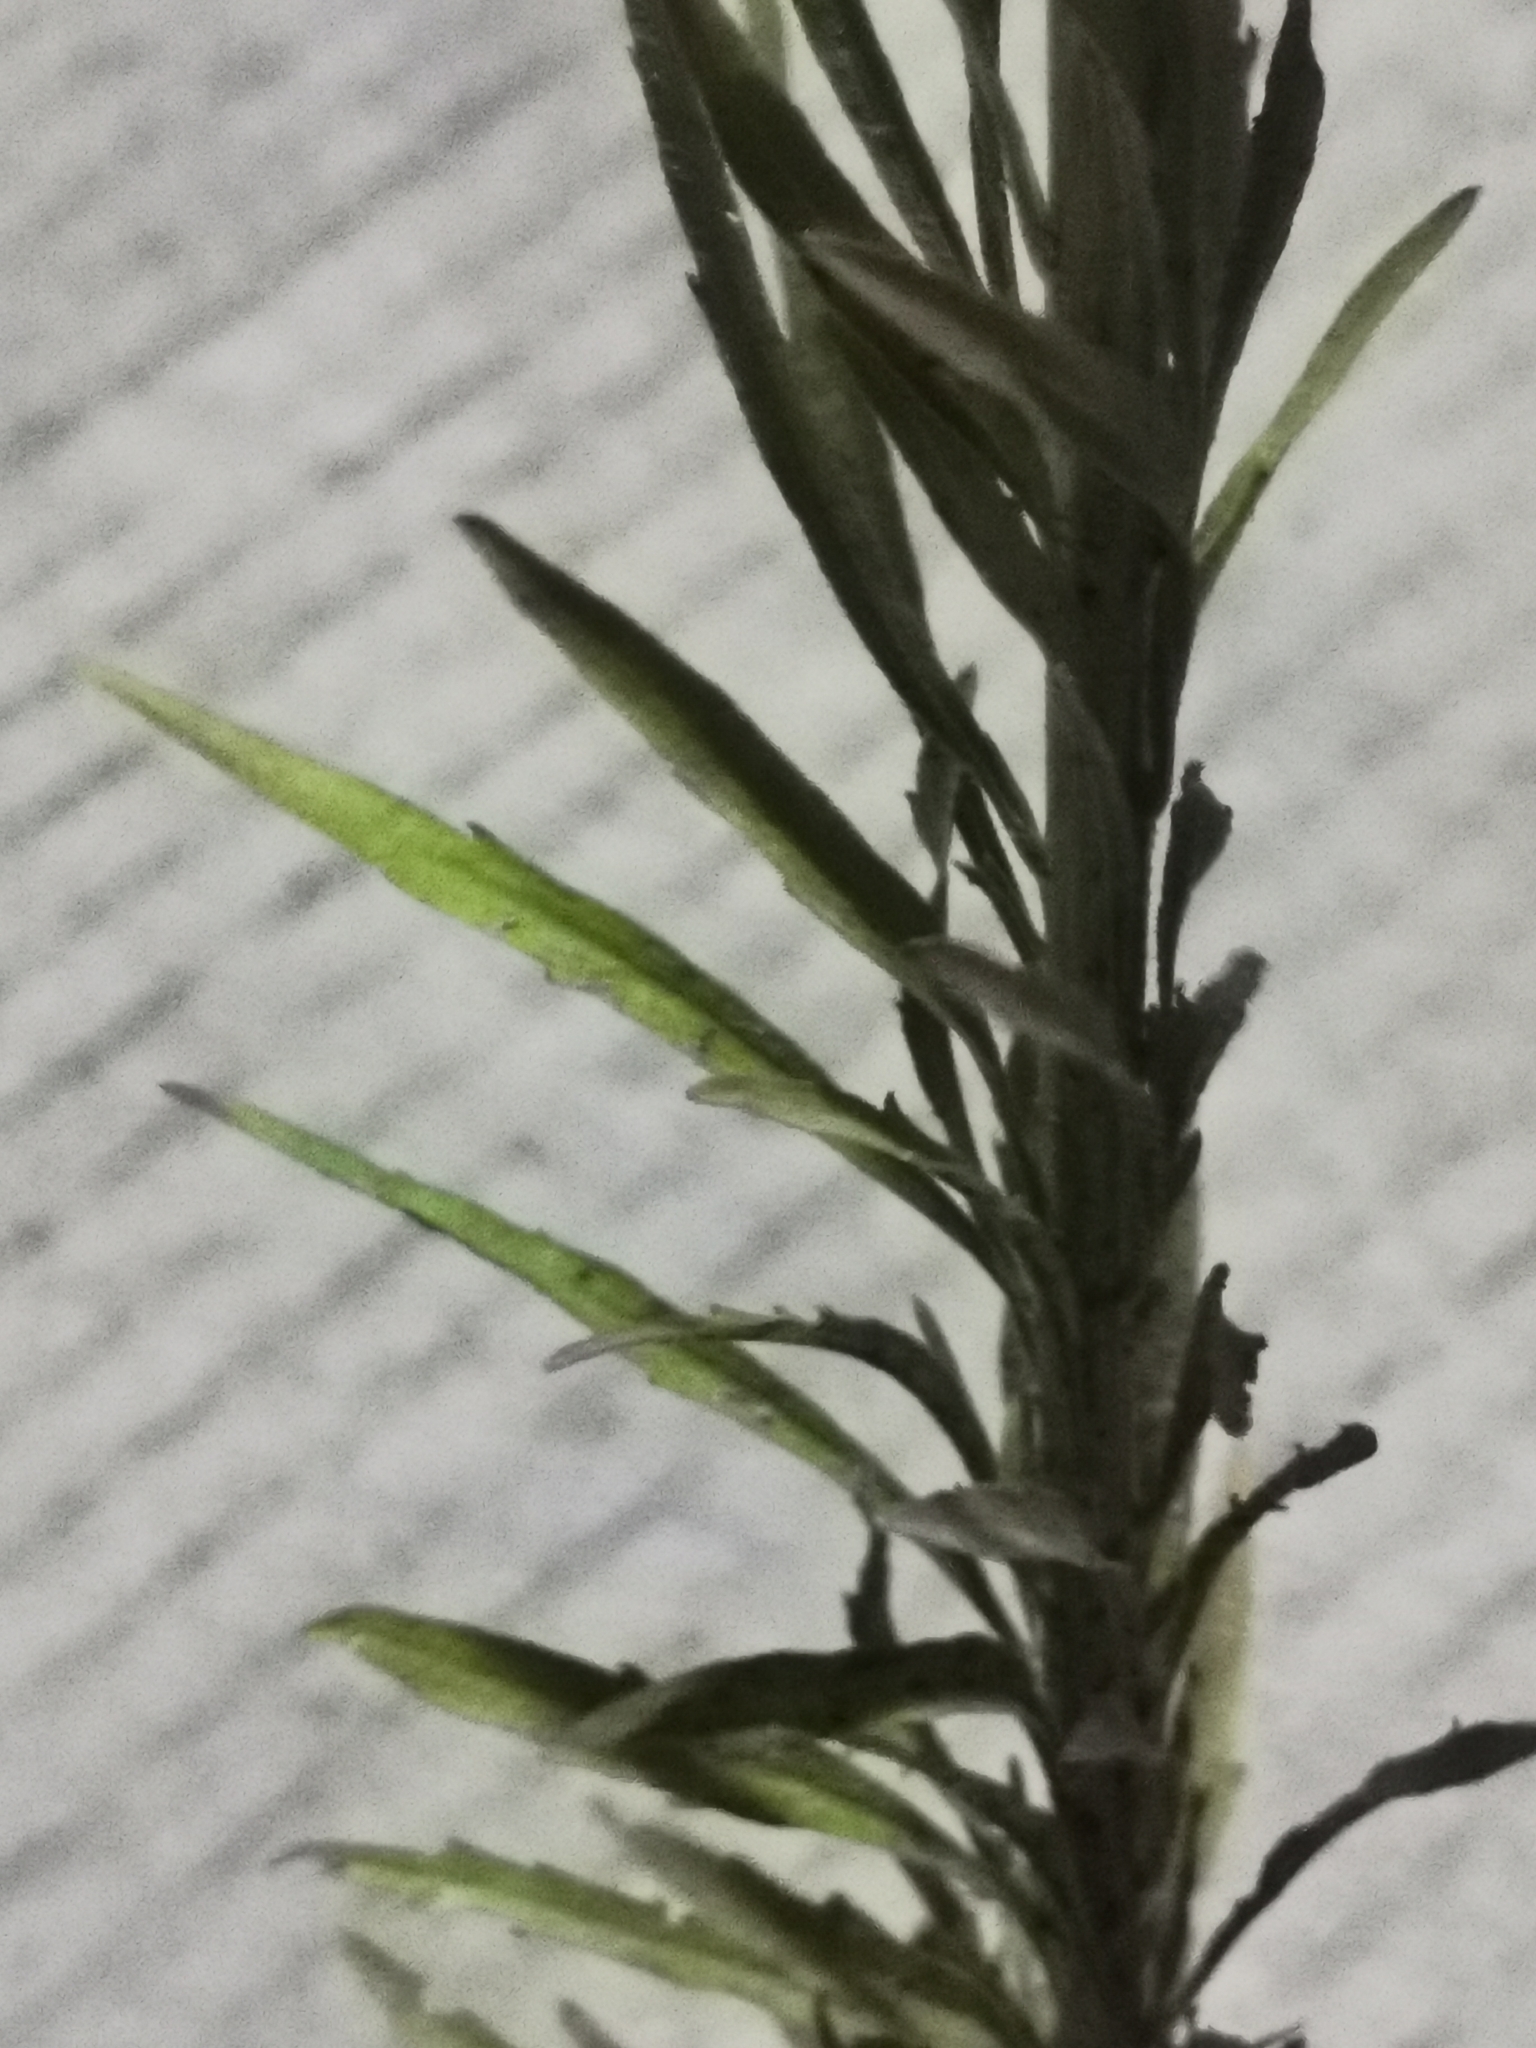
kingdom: Plantae
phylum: Tracheophyta
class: Magnoliopsida
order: Asterales
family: Asteraceae
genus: Erigeron
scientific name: Erigeron canadensis
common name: Canadian fleabane
